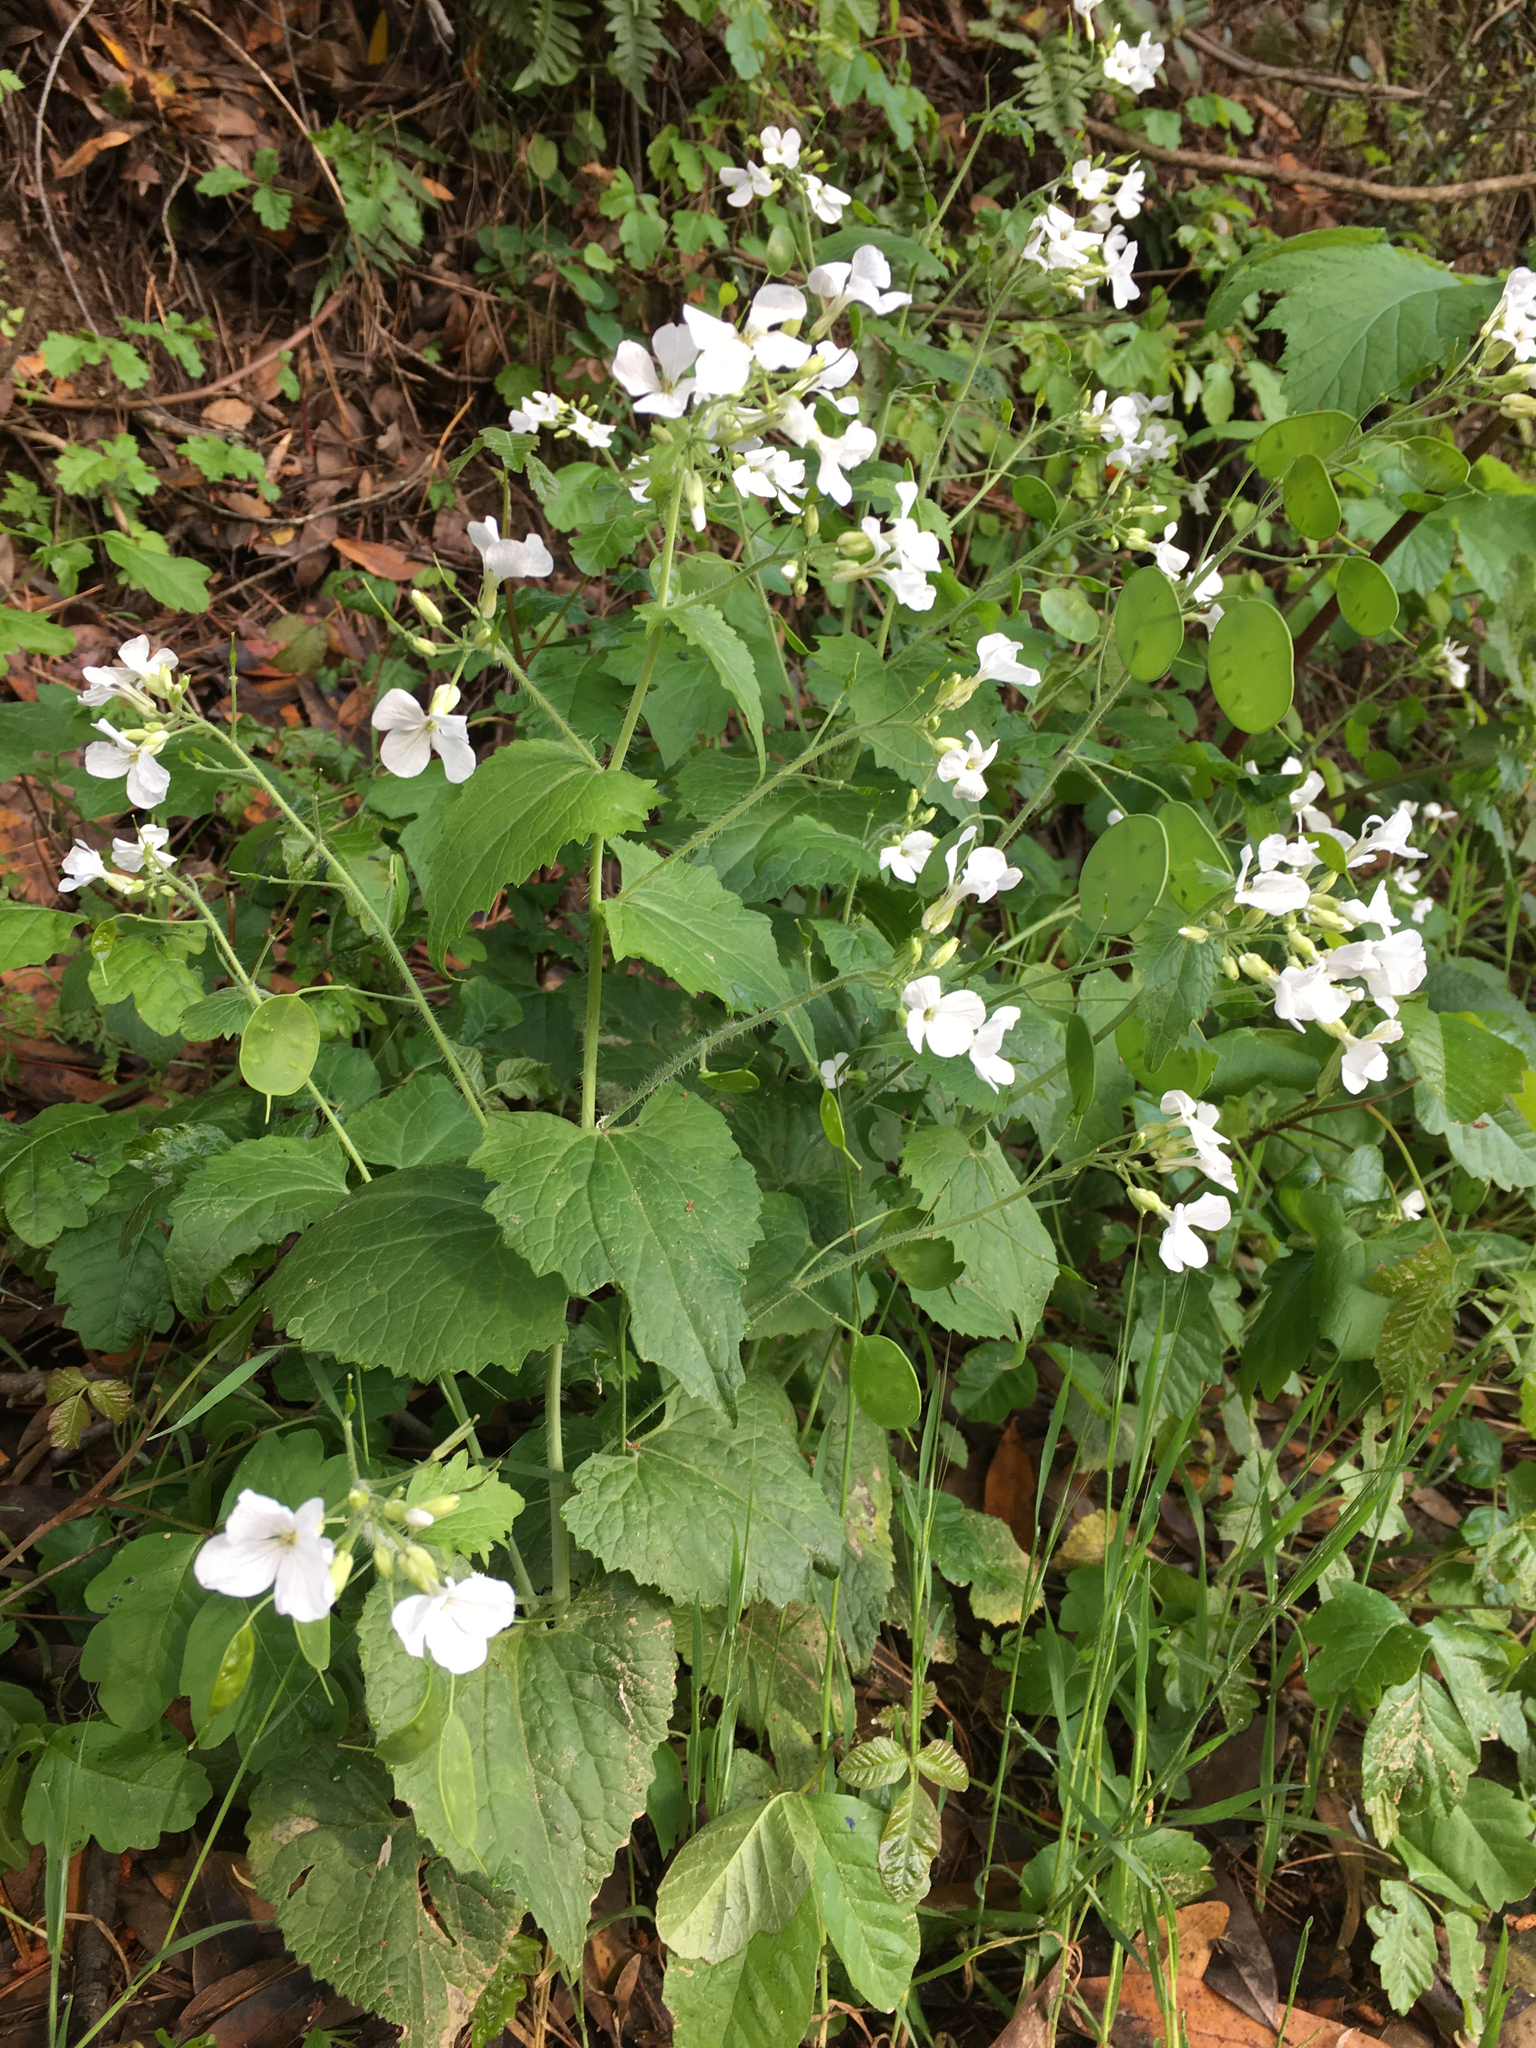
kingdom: Plantae
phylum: Tracheophyta
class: Magnoliopsida
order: Brassicales
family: Brassicaceae
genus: Raphanus
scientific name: Raphanus sativus
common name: Cultivated radish
